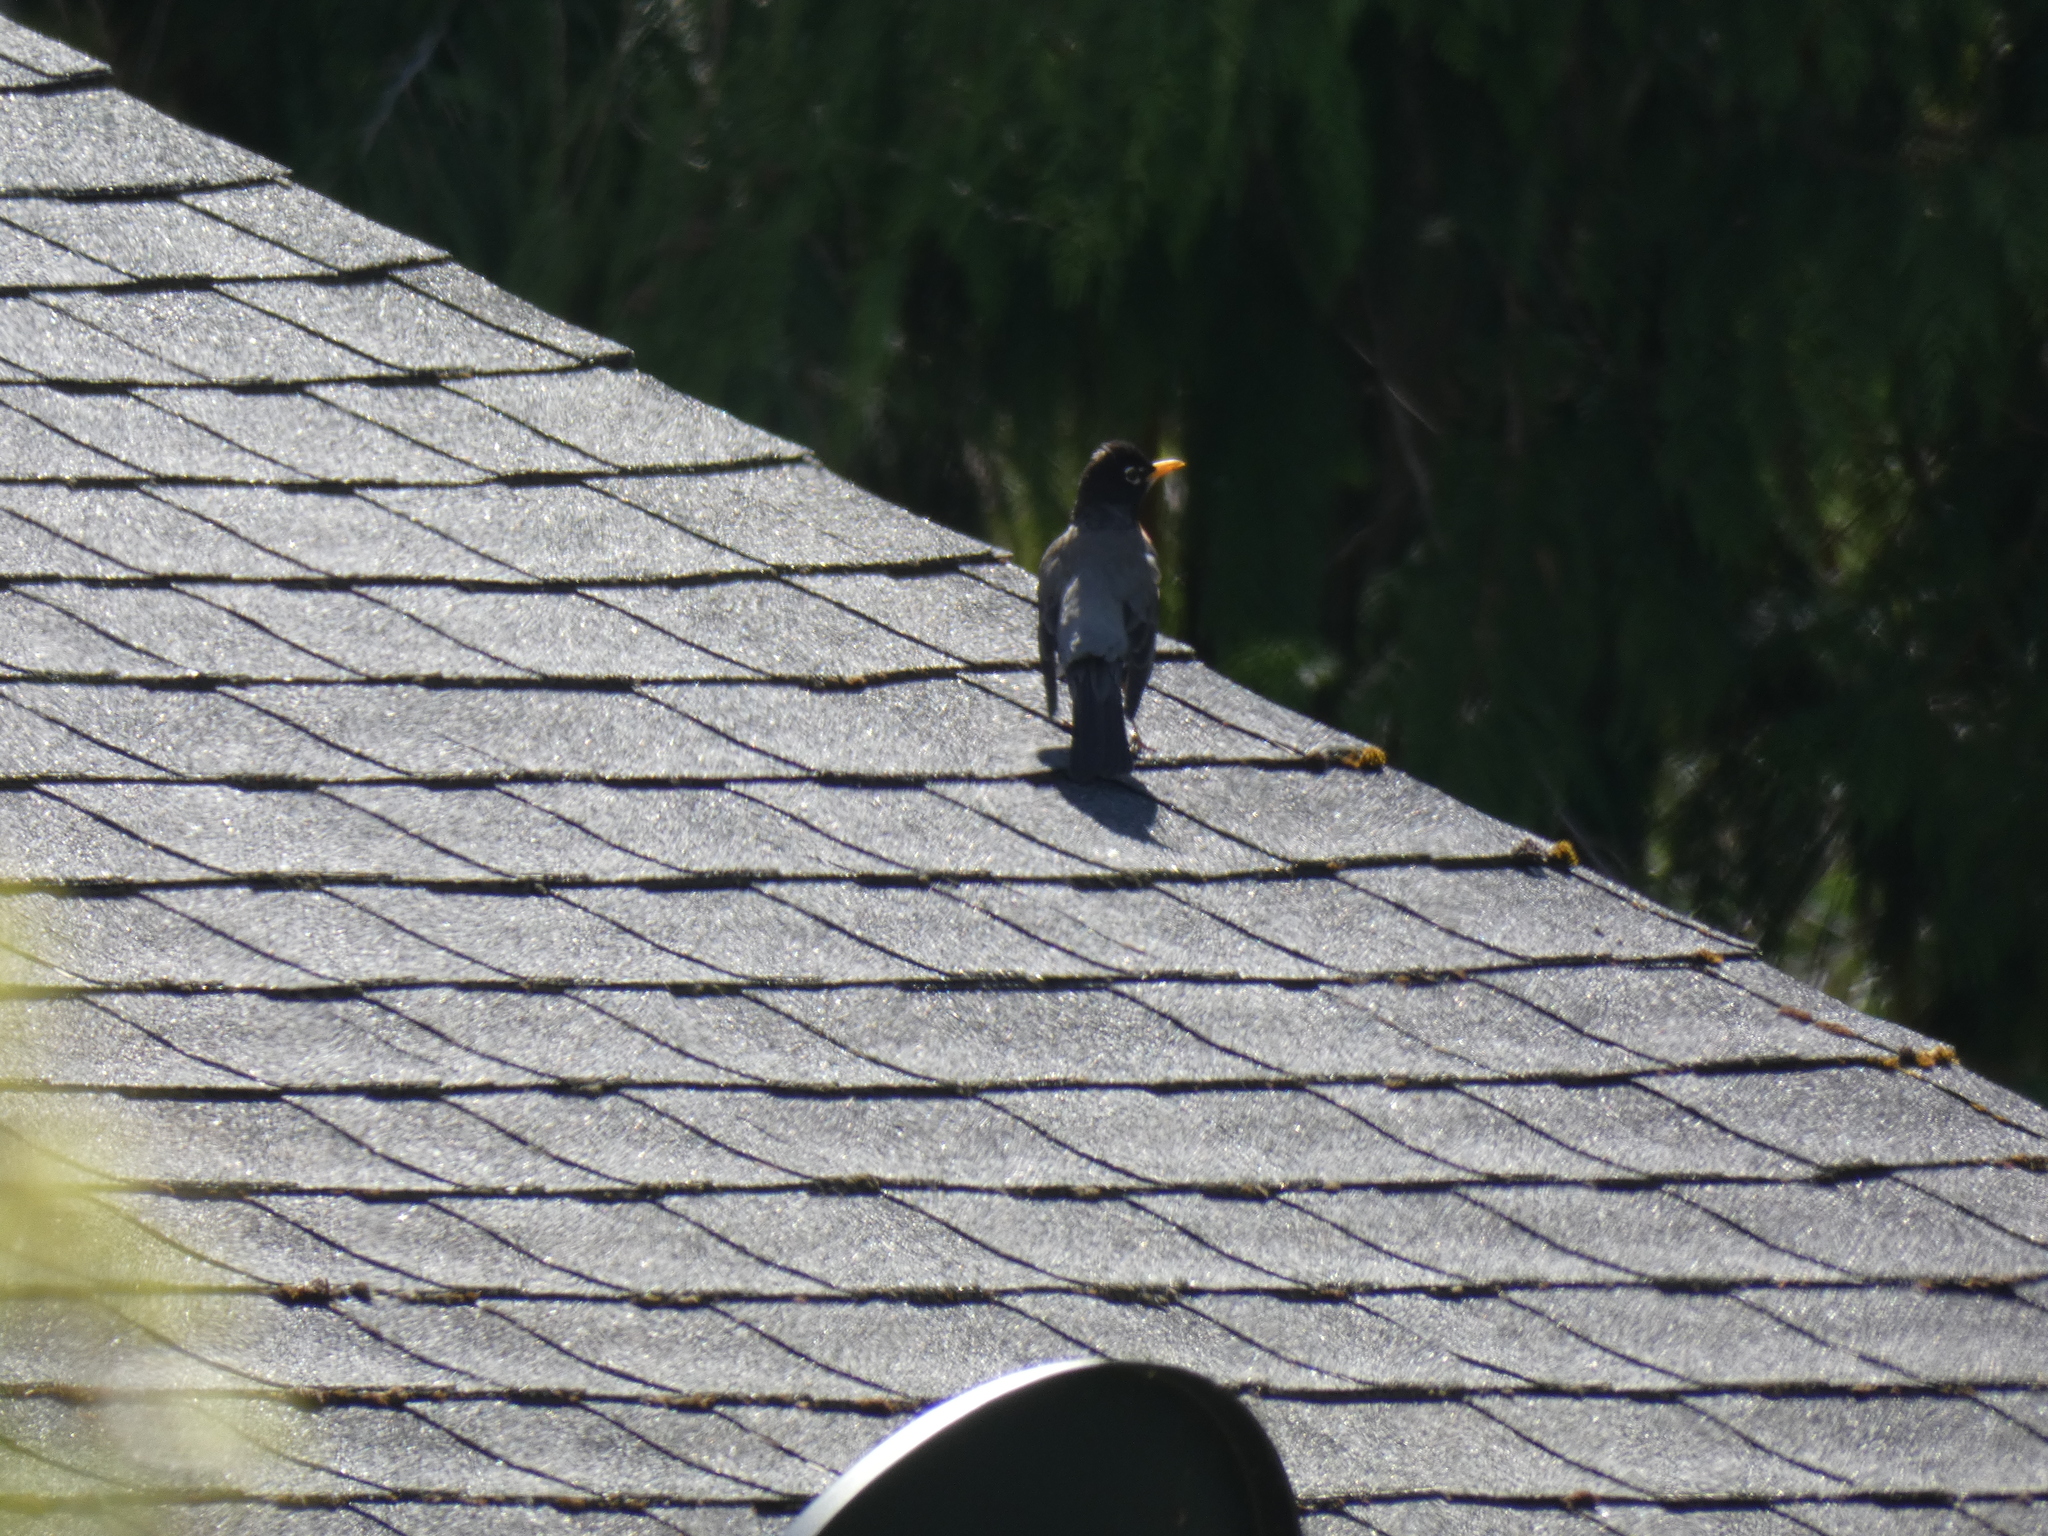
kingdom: Animalia
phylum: Chordata
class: Aves
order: Passeriformes
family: Turdidae
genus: Turdus
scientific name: Turdus migratorius
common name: American robin
